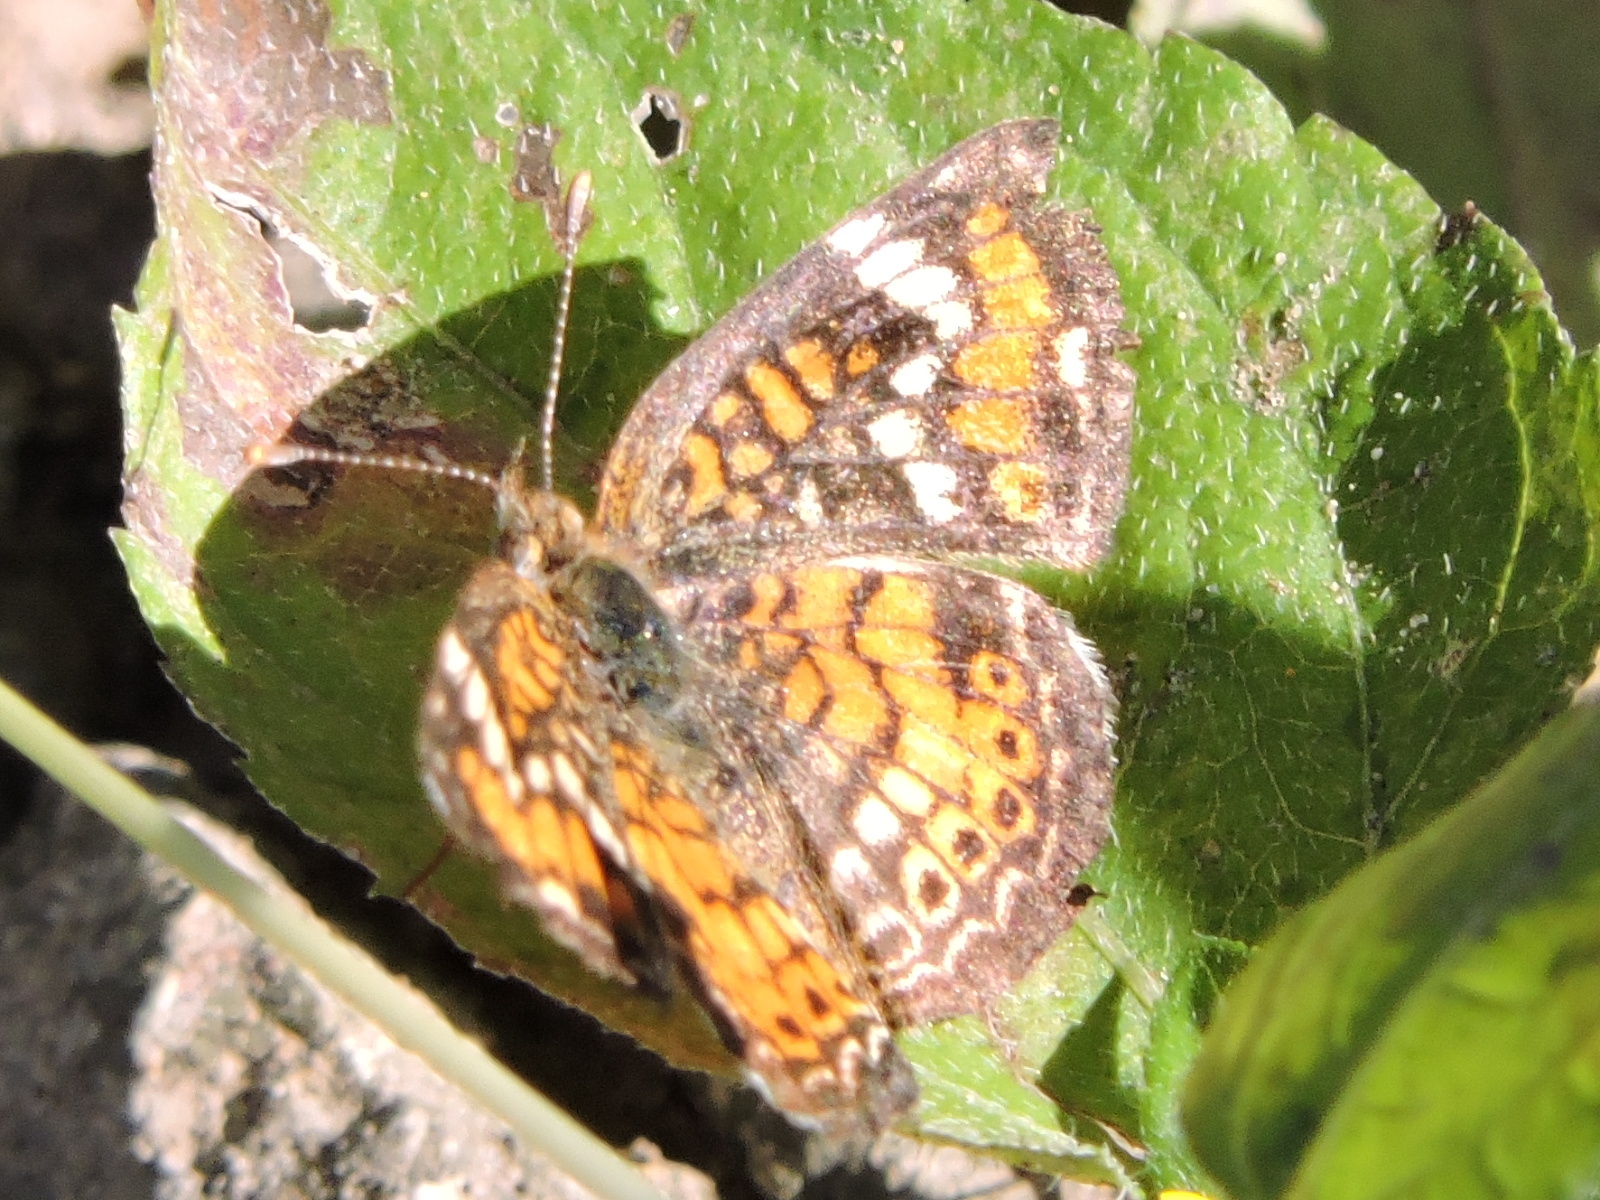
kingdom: Animalia
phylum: Arthropoda
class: Insecta
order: Lepidoptera
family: Nymphalidae
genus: Phyciodes
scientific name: Phyciodes phaon
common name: Phaon crescent
